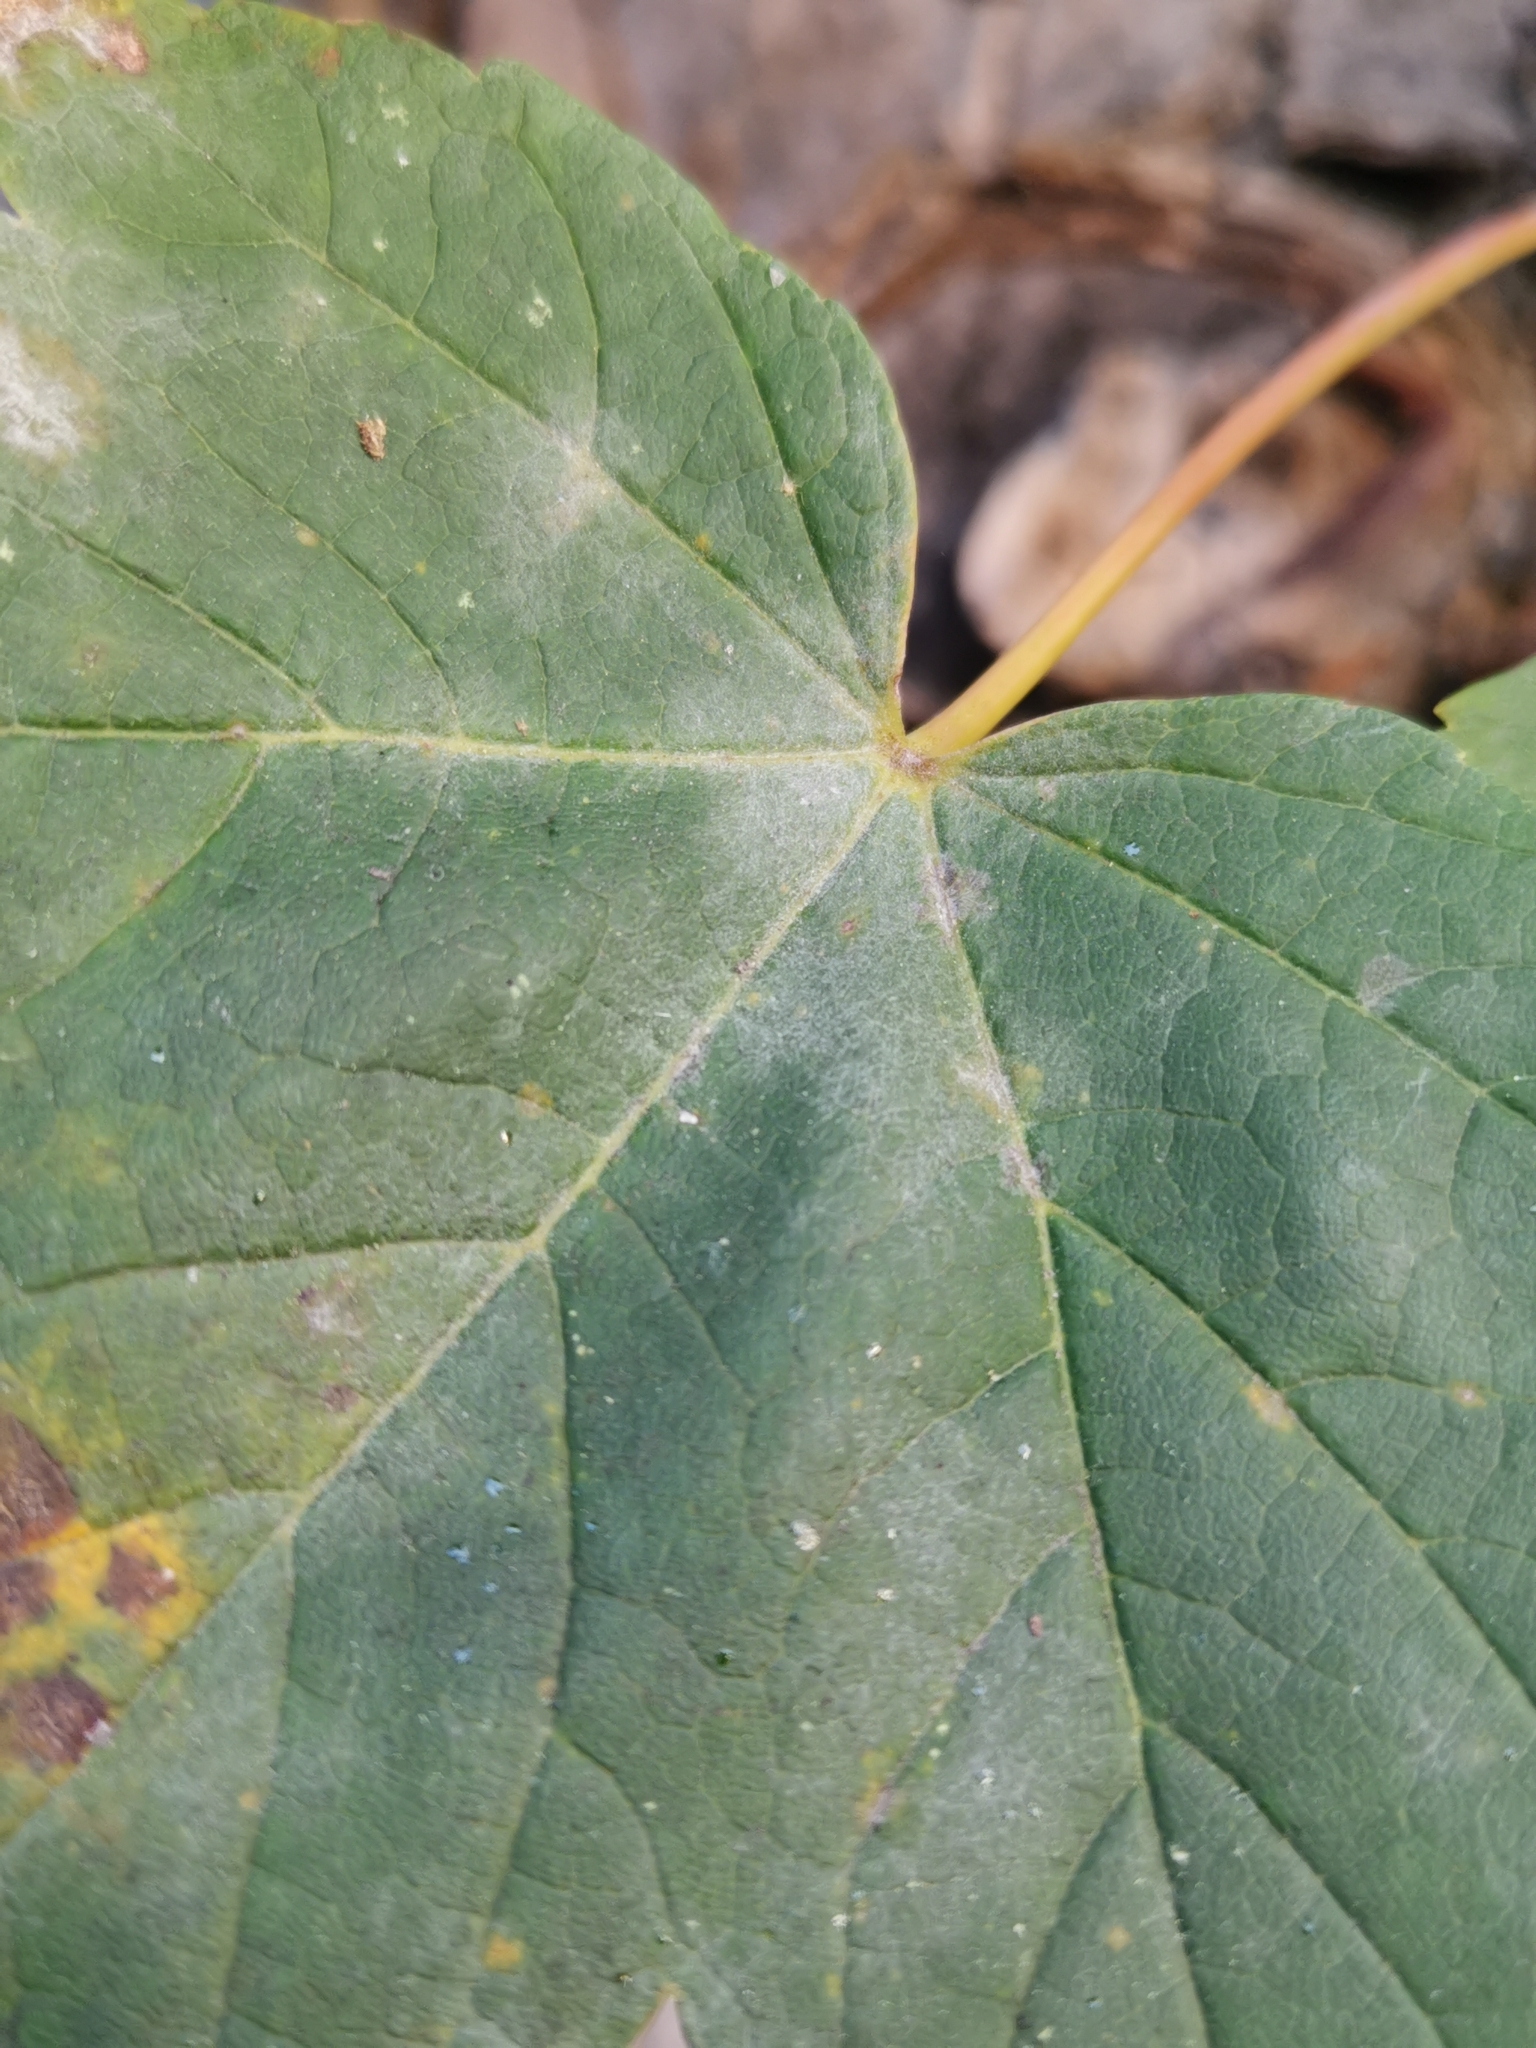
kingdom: Fungi
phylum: Ascomycota
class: Leotiomycetes
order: Helotiales
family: Erysiphaceae
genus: Sawadaea
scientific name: Sawadaea bicornis
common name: Maple mildew
